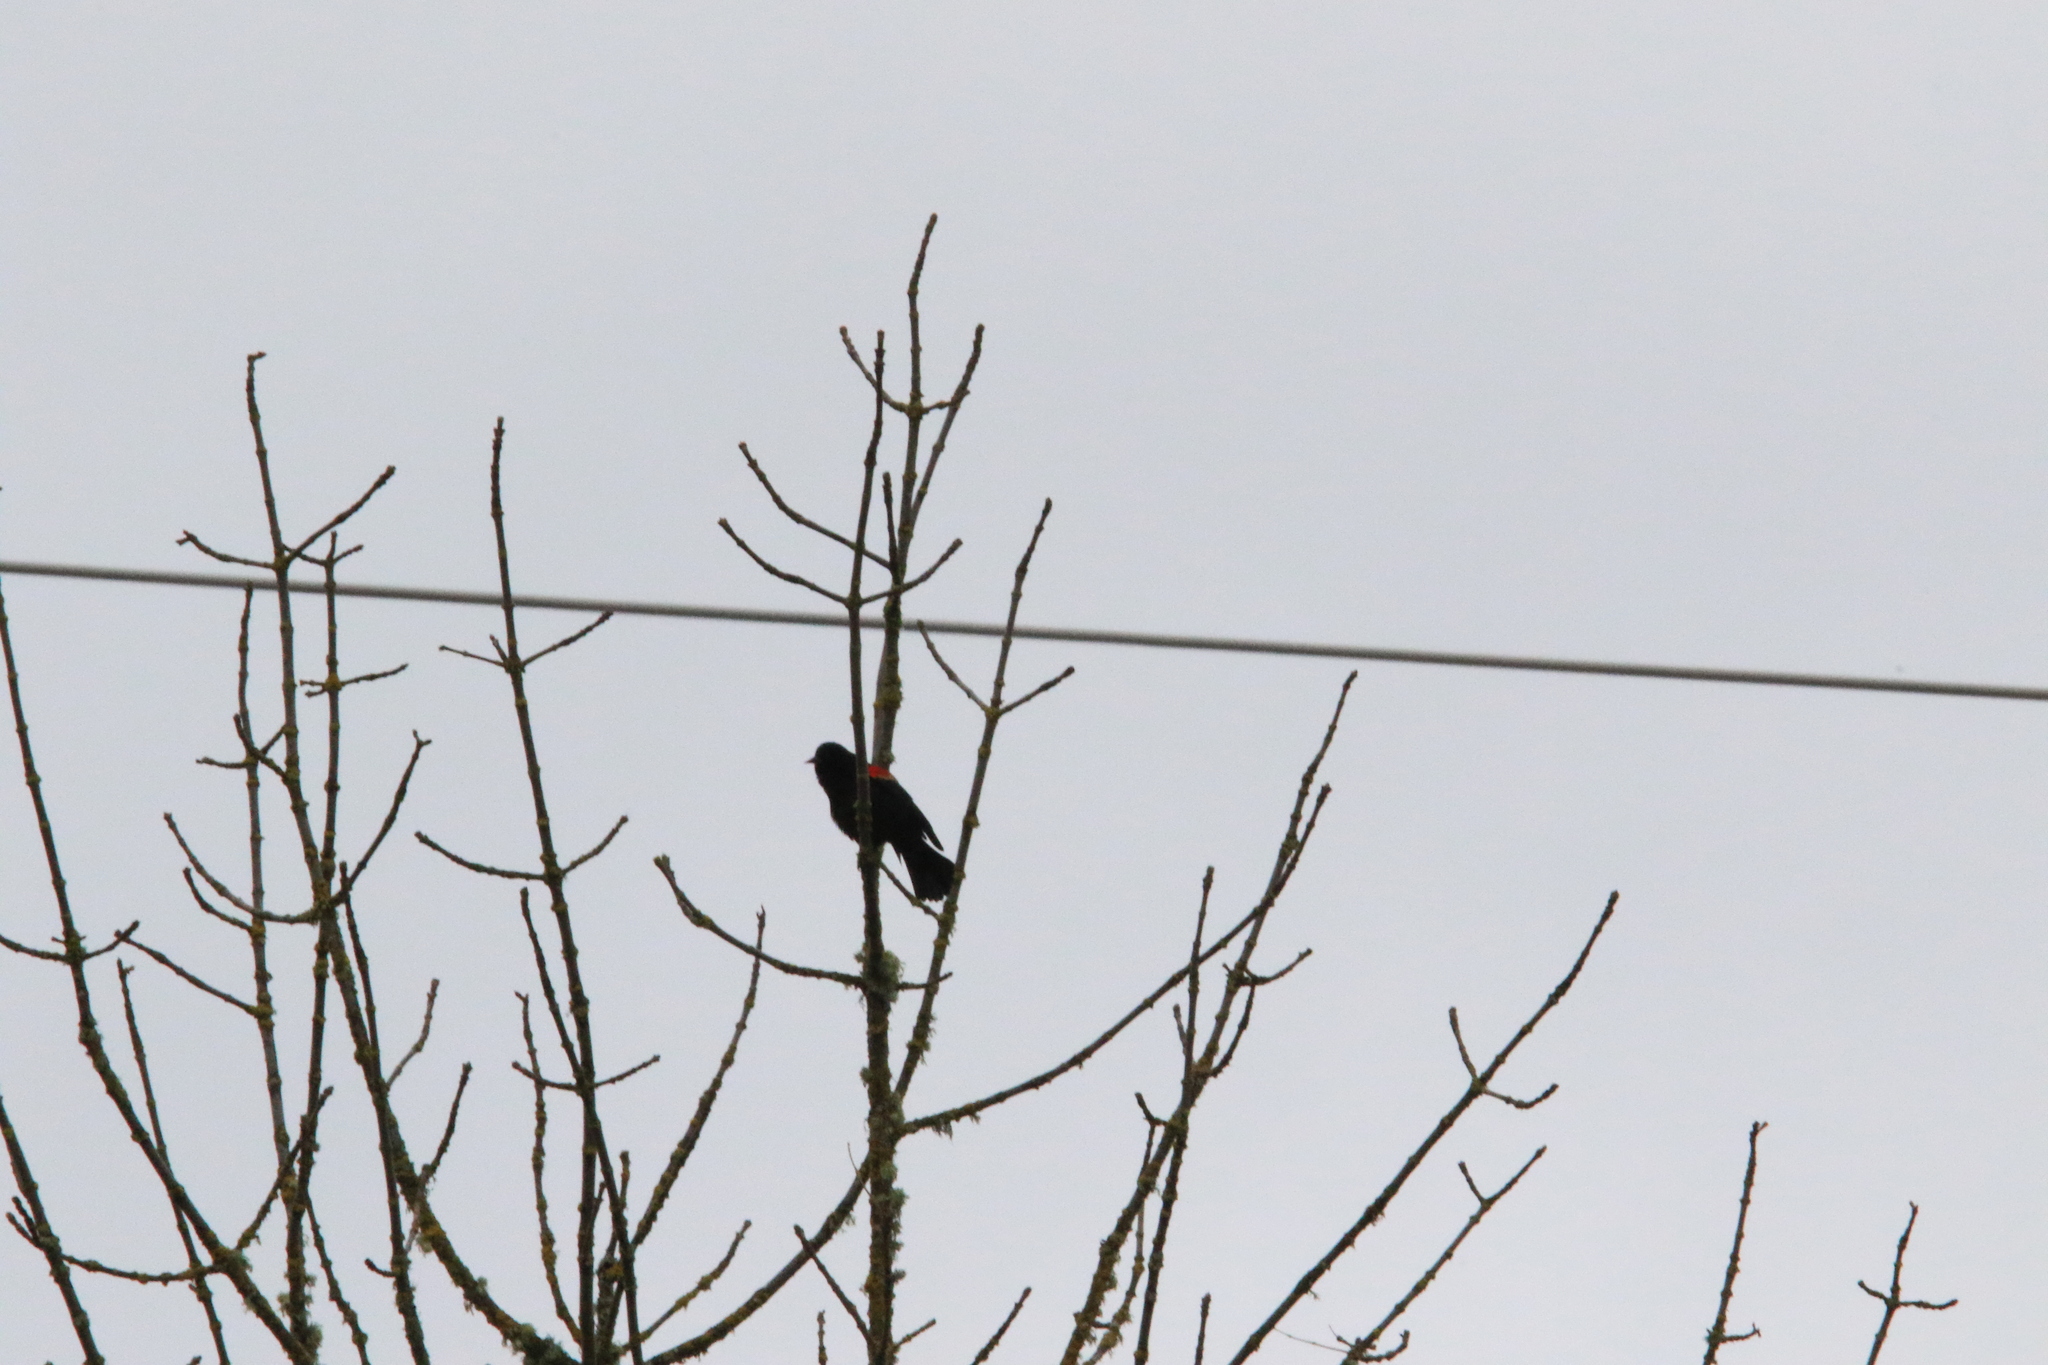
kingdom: Animalia
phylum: Chordata
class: Aves
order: Passeriformes
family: Icteridae
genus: Agelaius
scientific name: Agelaius phoeniceus
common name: Red-winged blackbird
